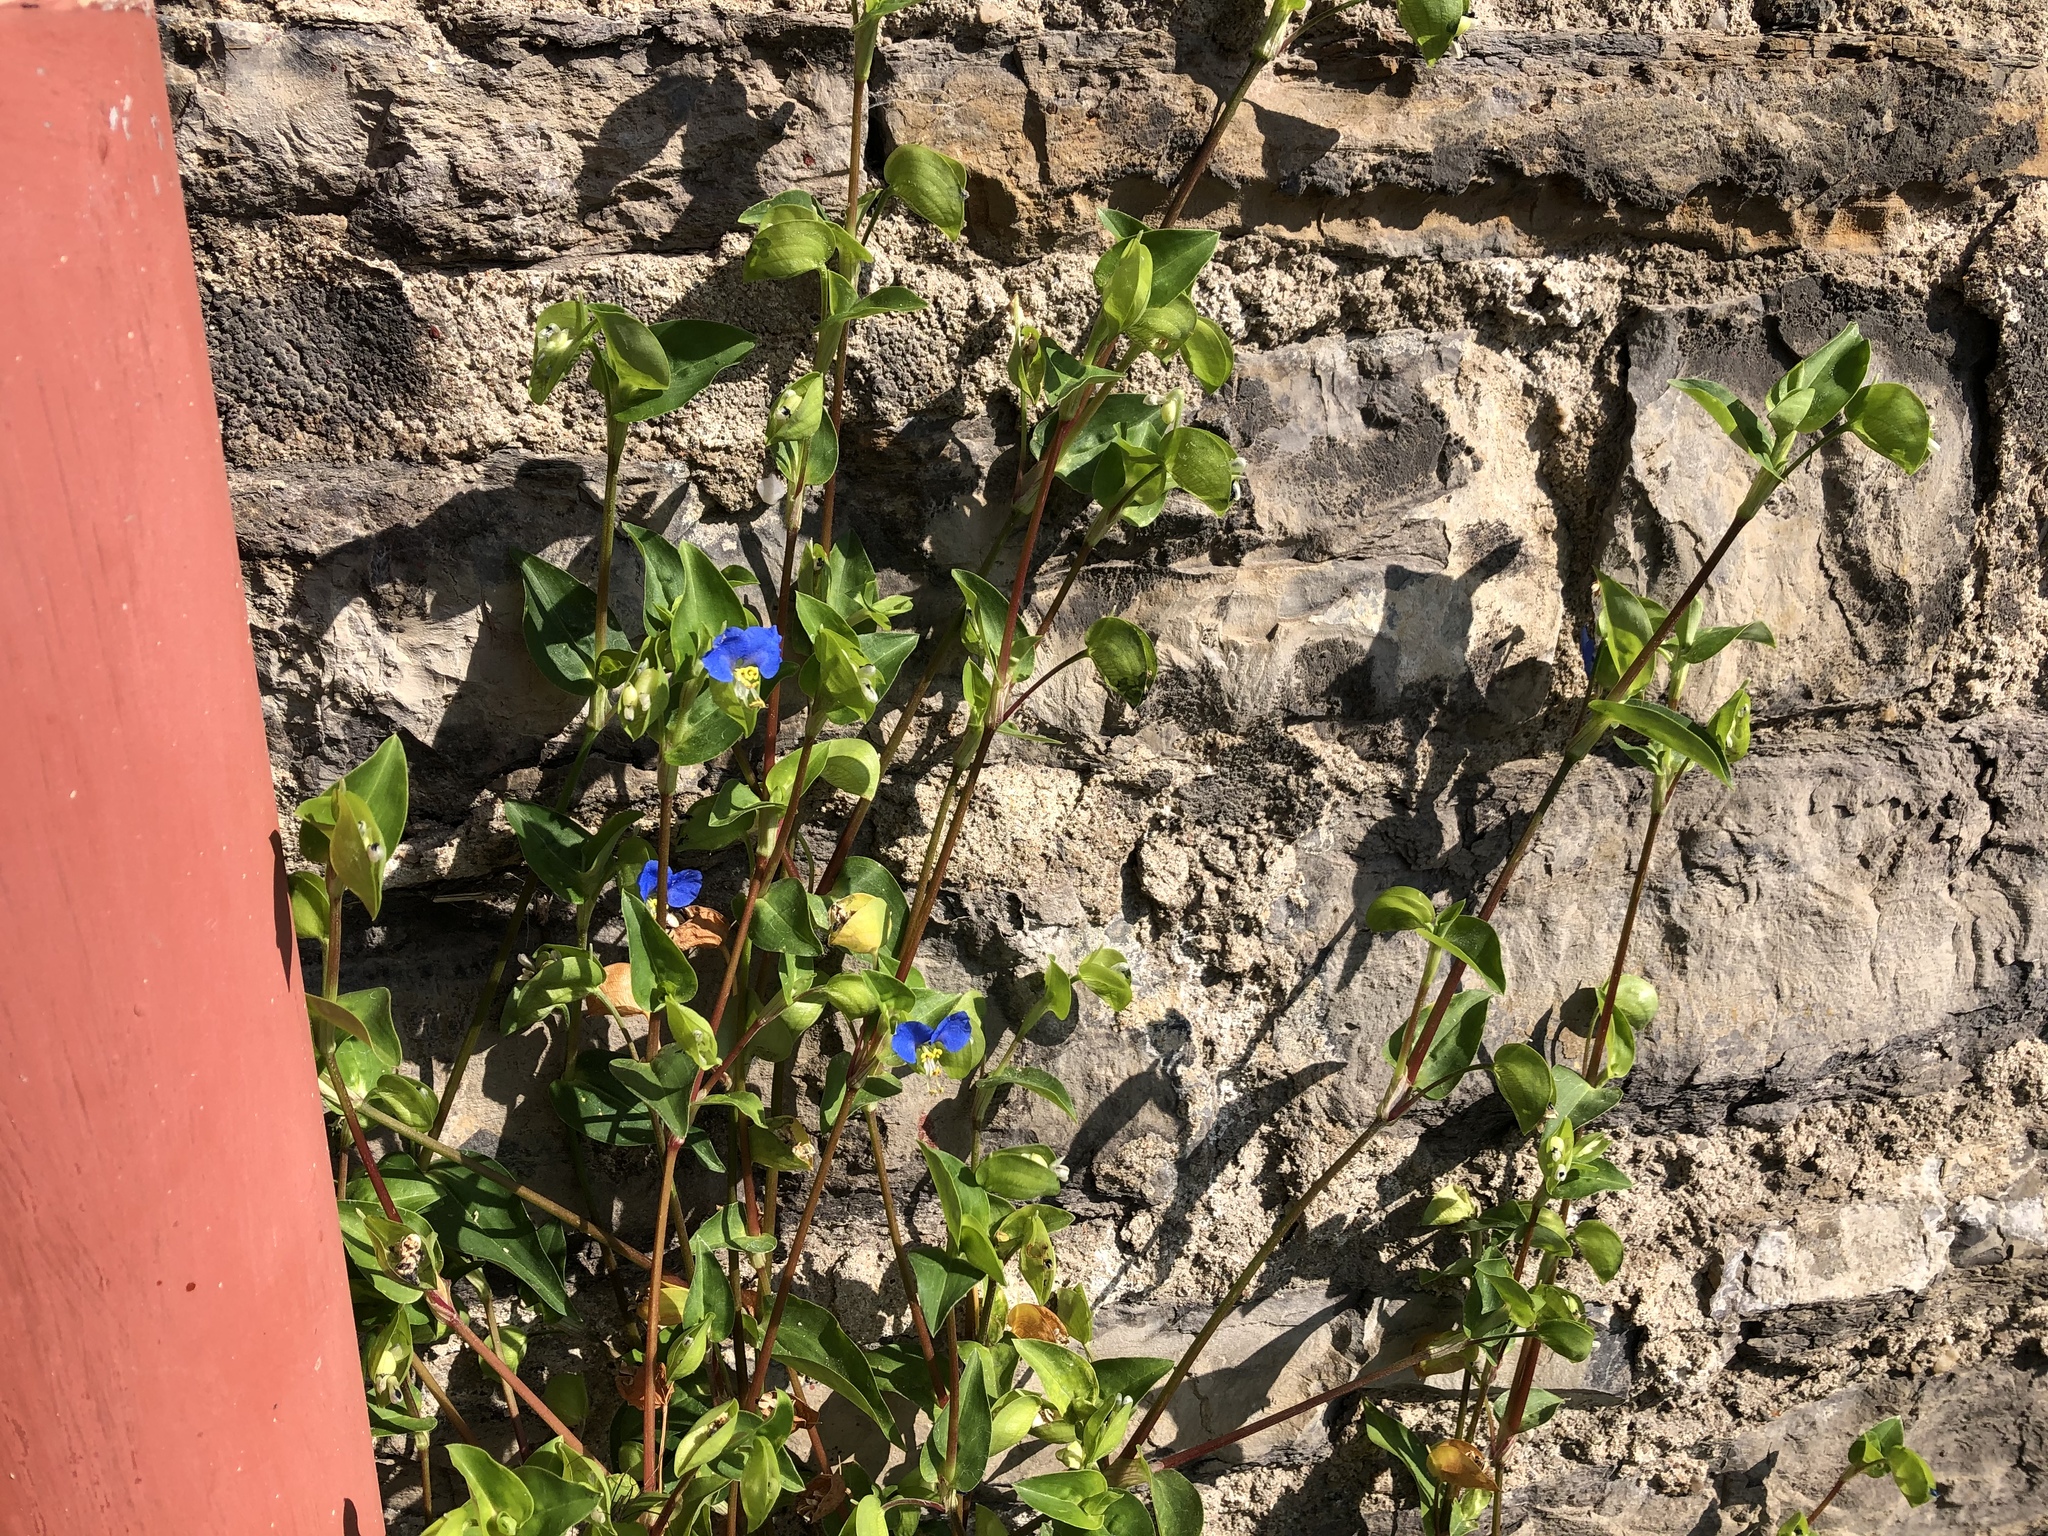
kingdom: Plantae
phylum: Tracheophyta
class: Liliopsida
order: Commelinales
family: Commelinaceae
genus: Commelina
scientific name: Commelina communis
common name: Asiatic dayflower
